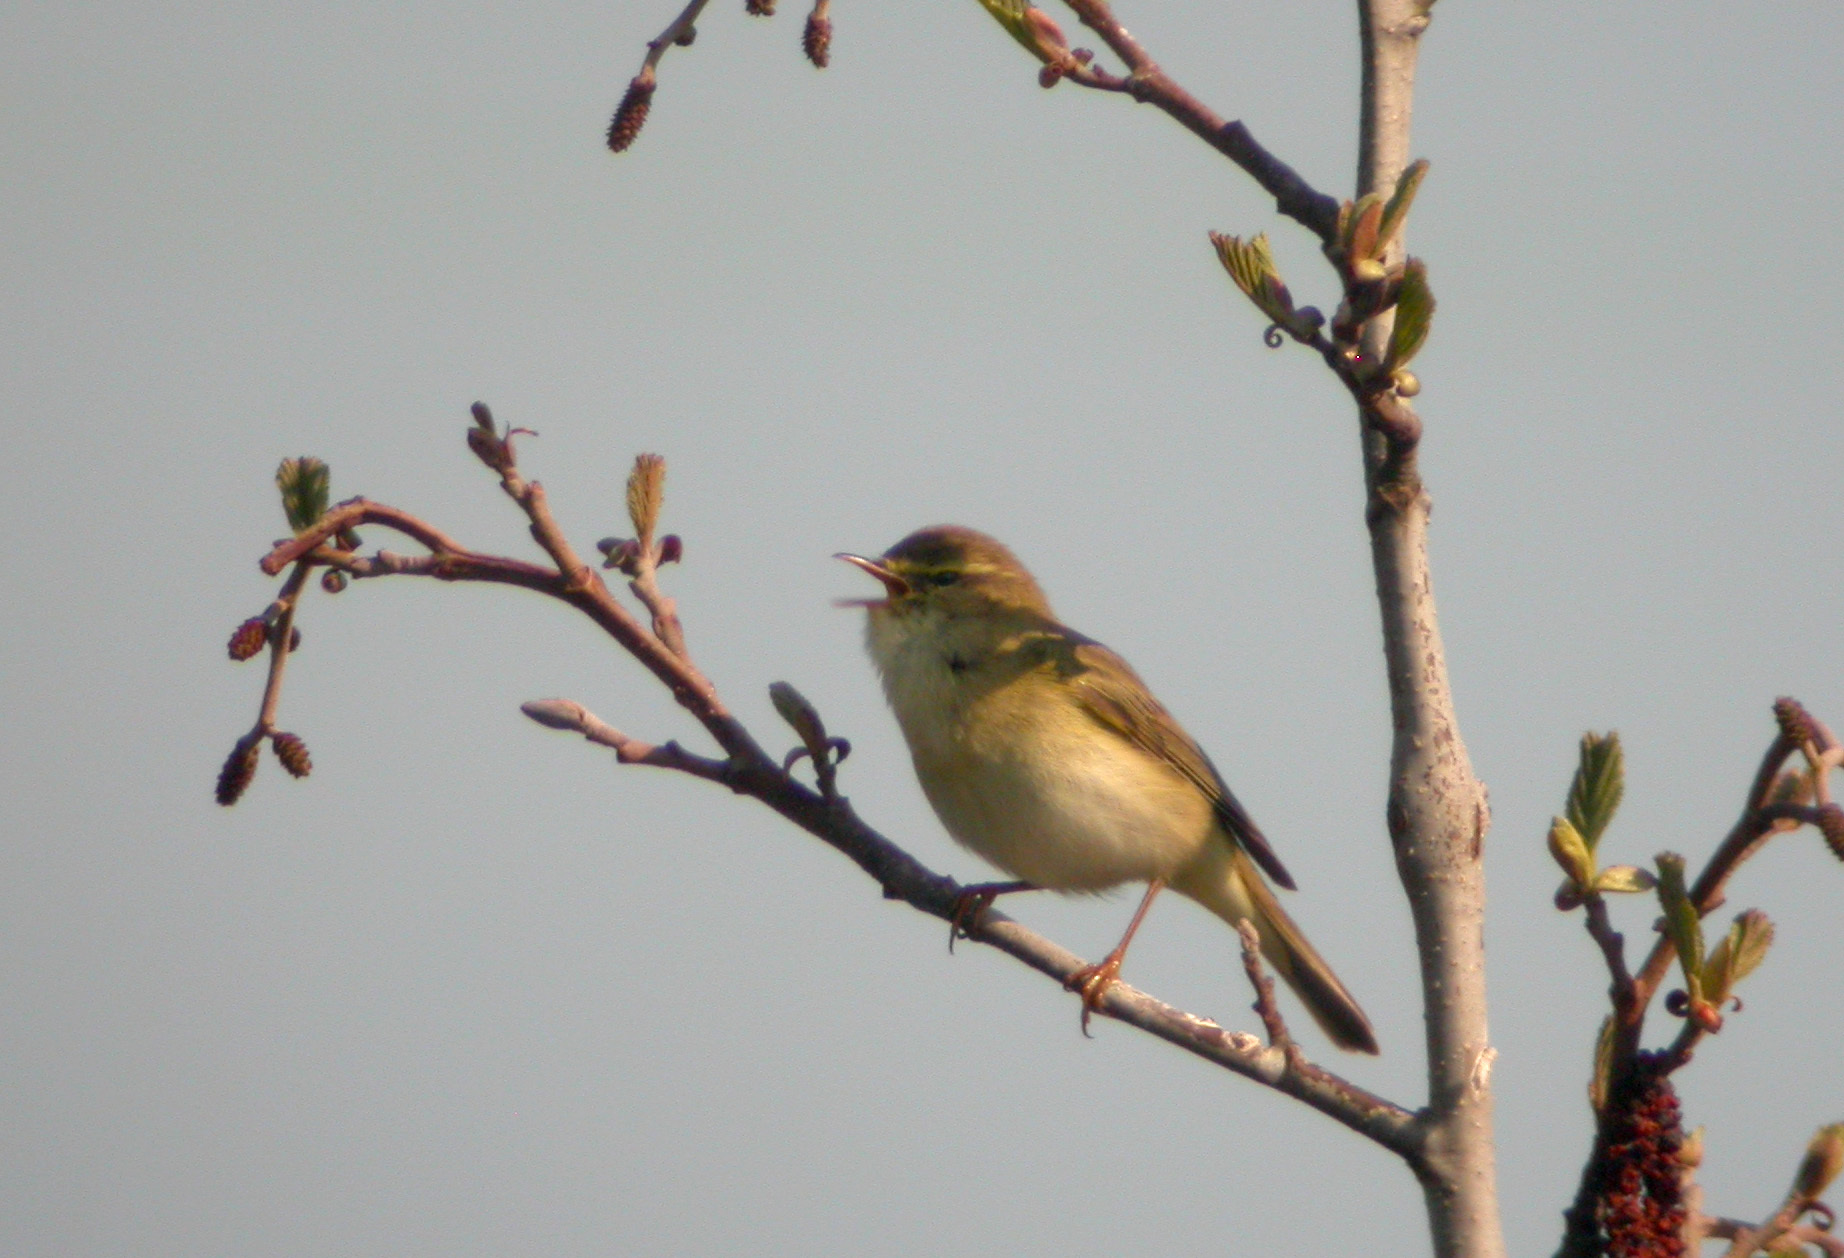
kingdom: Animalia
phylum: Chordata
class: Aves
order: Passeriformes
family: Phylloscopidae
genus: Phylloscopus
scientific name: Phylloscopus trochilus
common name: Willow warbler
